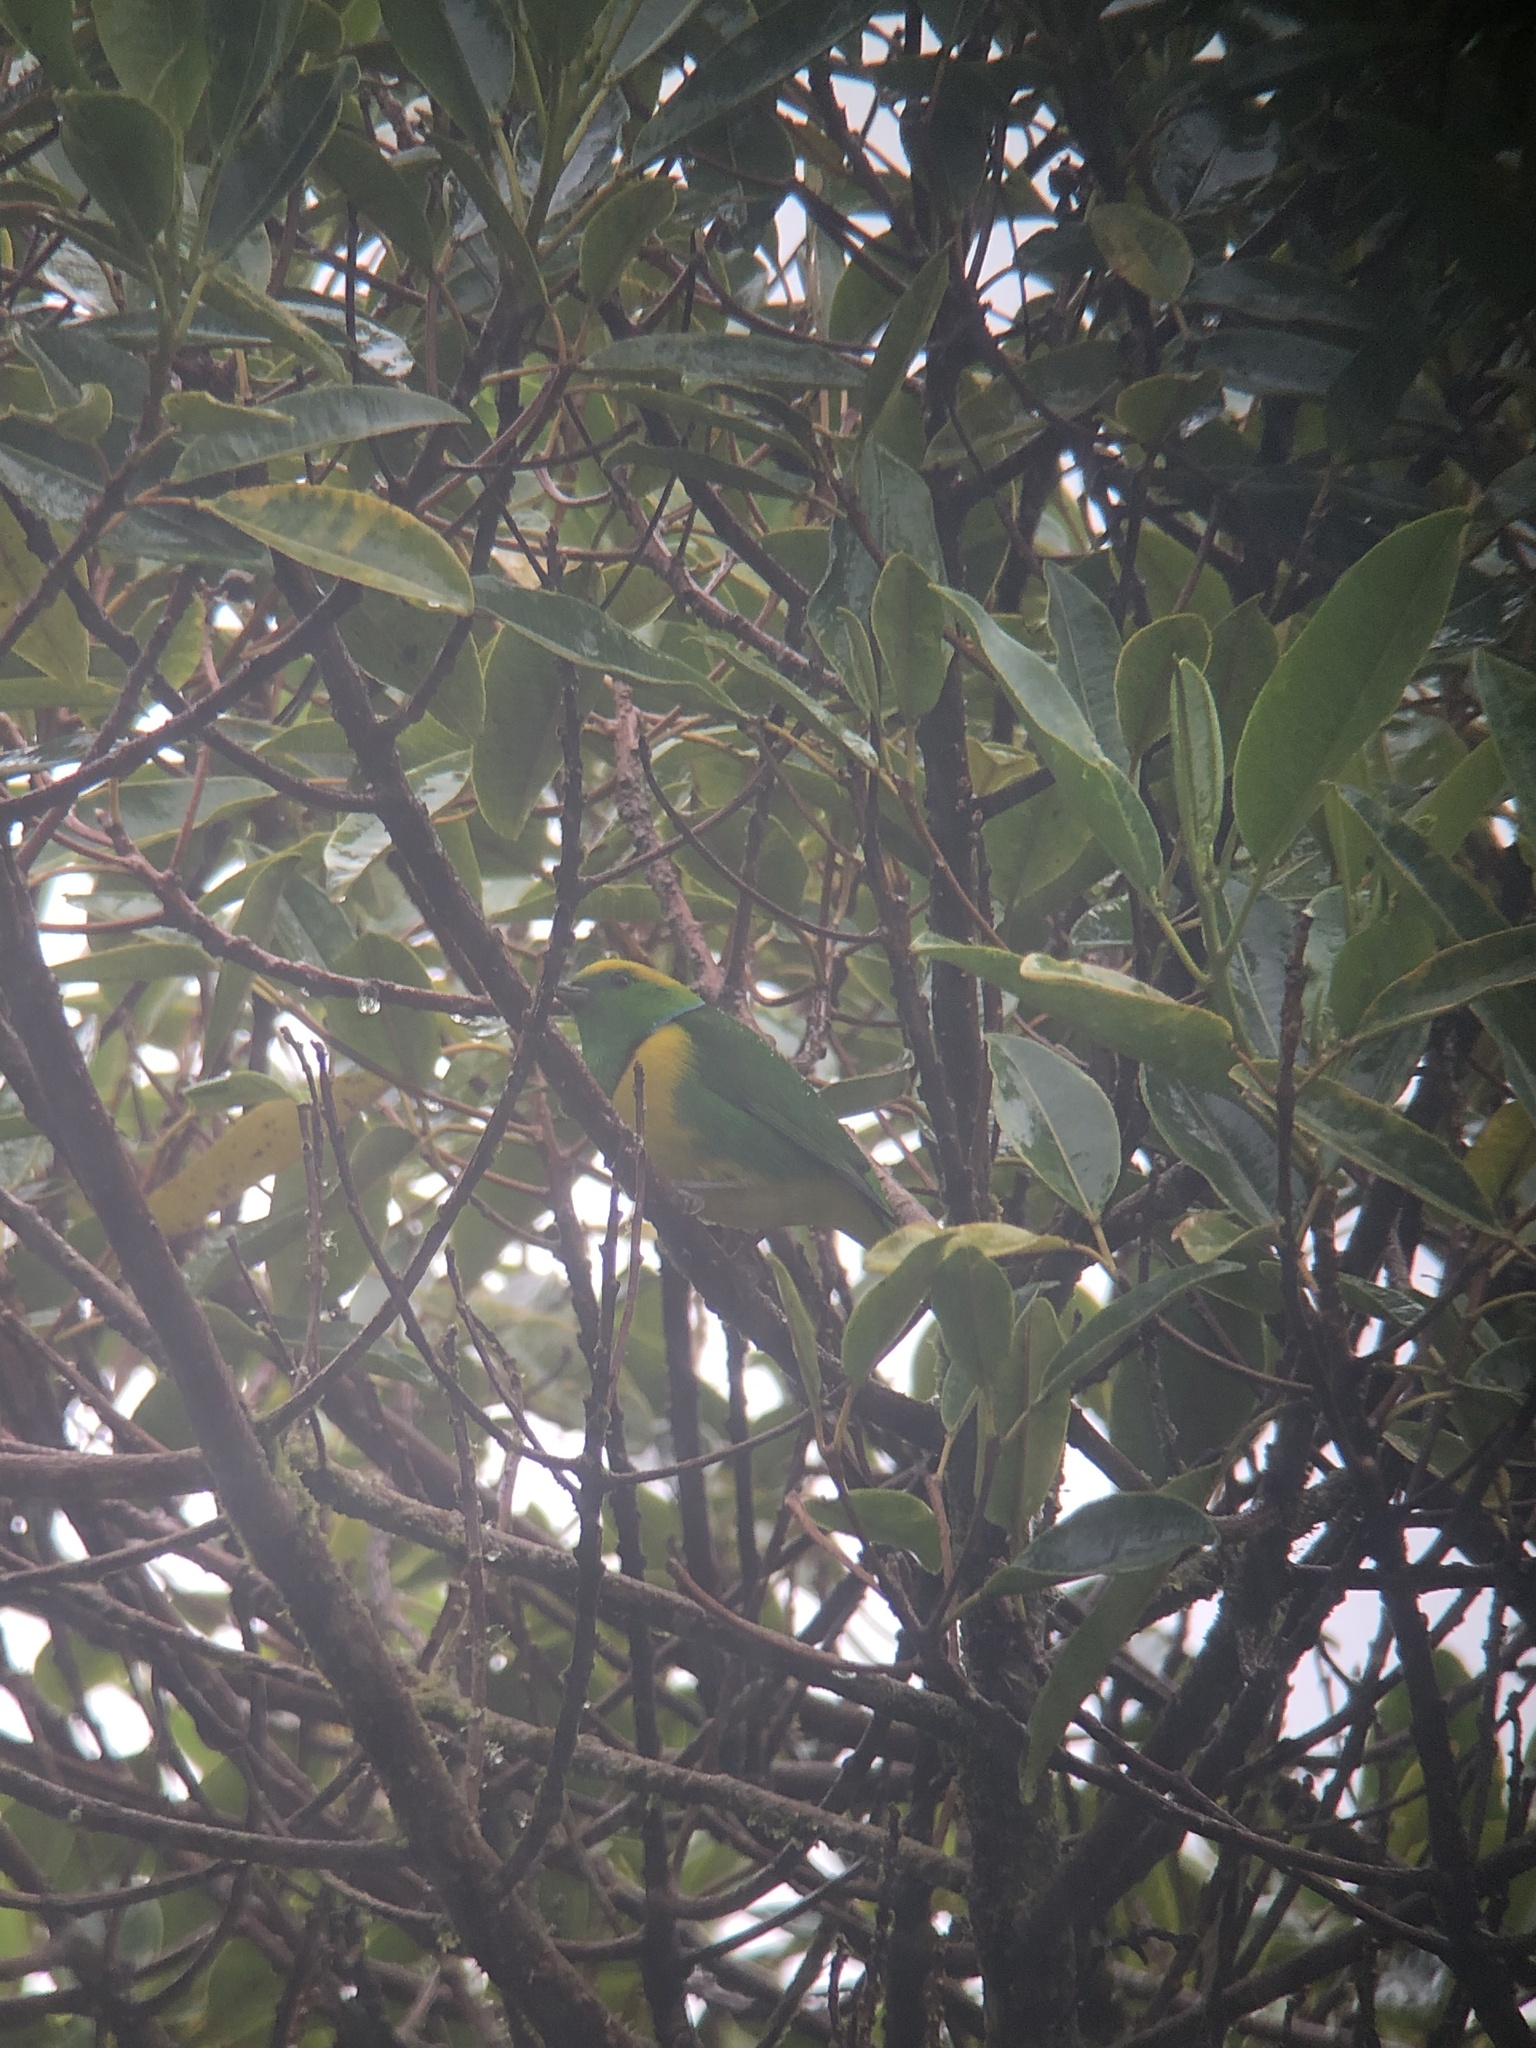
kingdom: Animalia
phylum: Chordata
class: Aves
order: Passeriformes
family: Fringillidae
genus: Chlorophonia
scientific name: Chlorophonia callophrys
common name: Golden-browed chlorophonia
